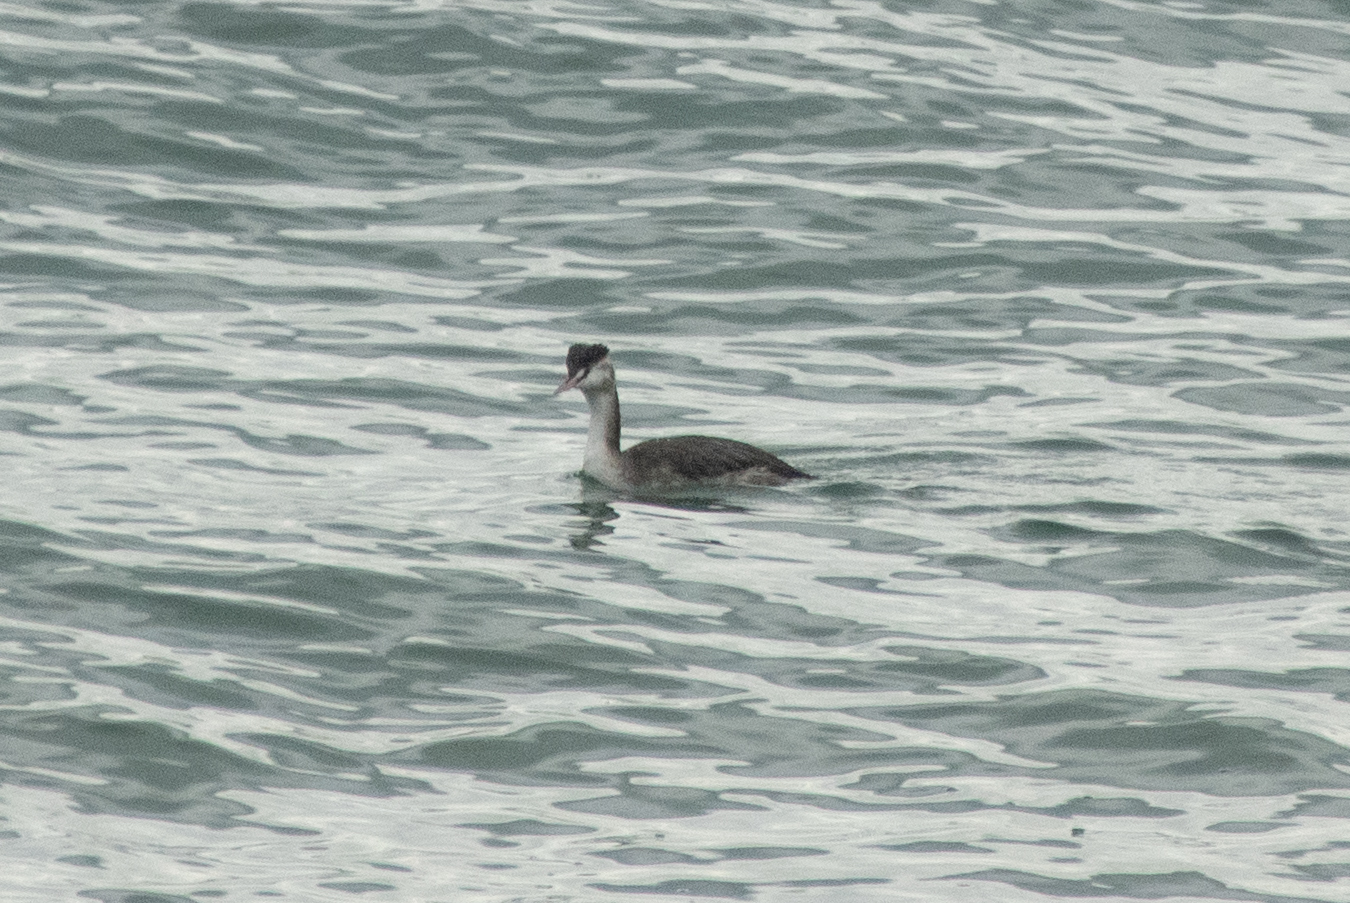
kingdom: Animalia
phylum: Chordata
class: Aves
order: Podicipediformes
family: Podicipedidae
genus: Podiceps
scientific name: Podiceps cristatus
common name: Great crested grebe
